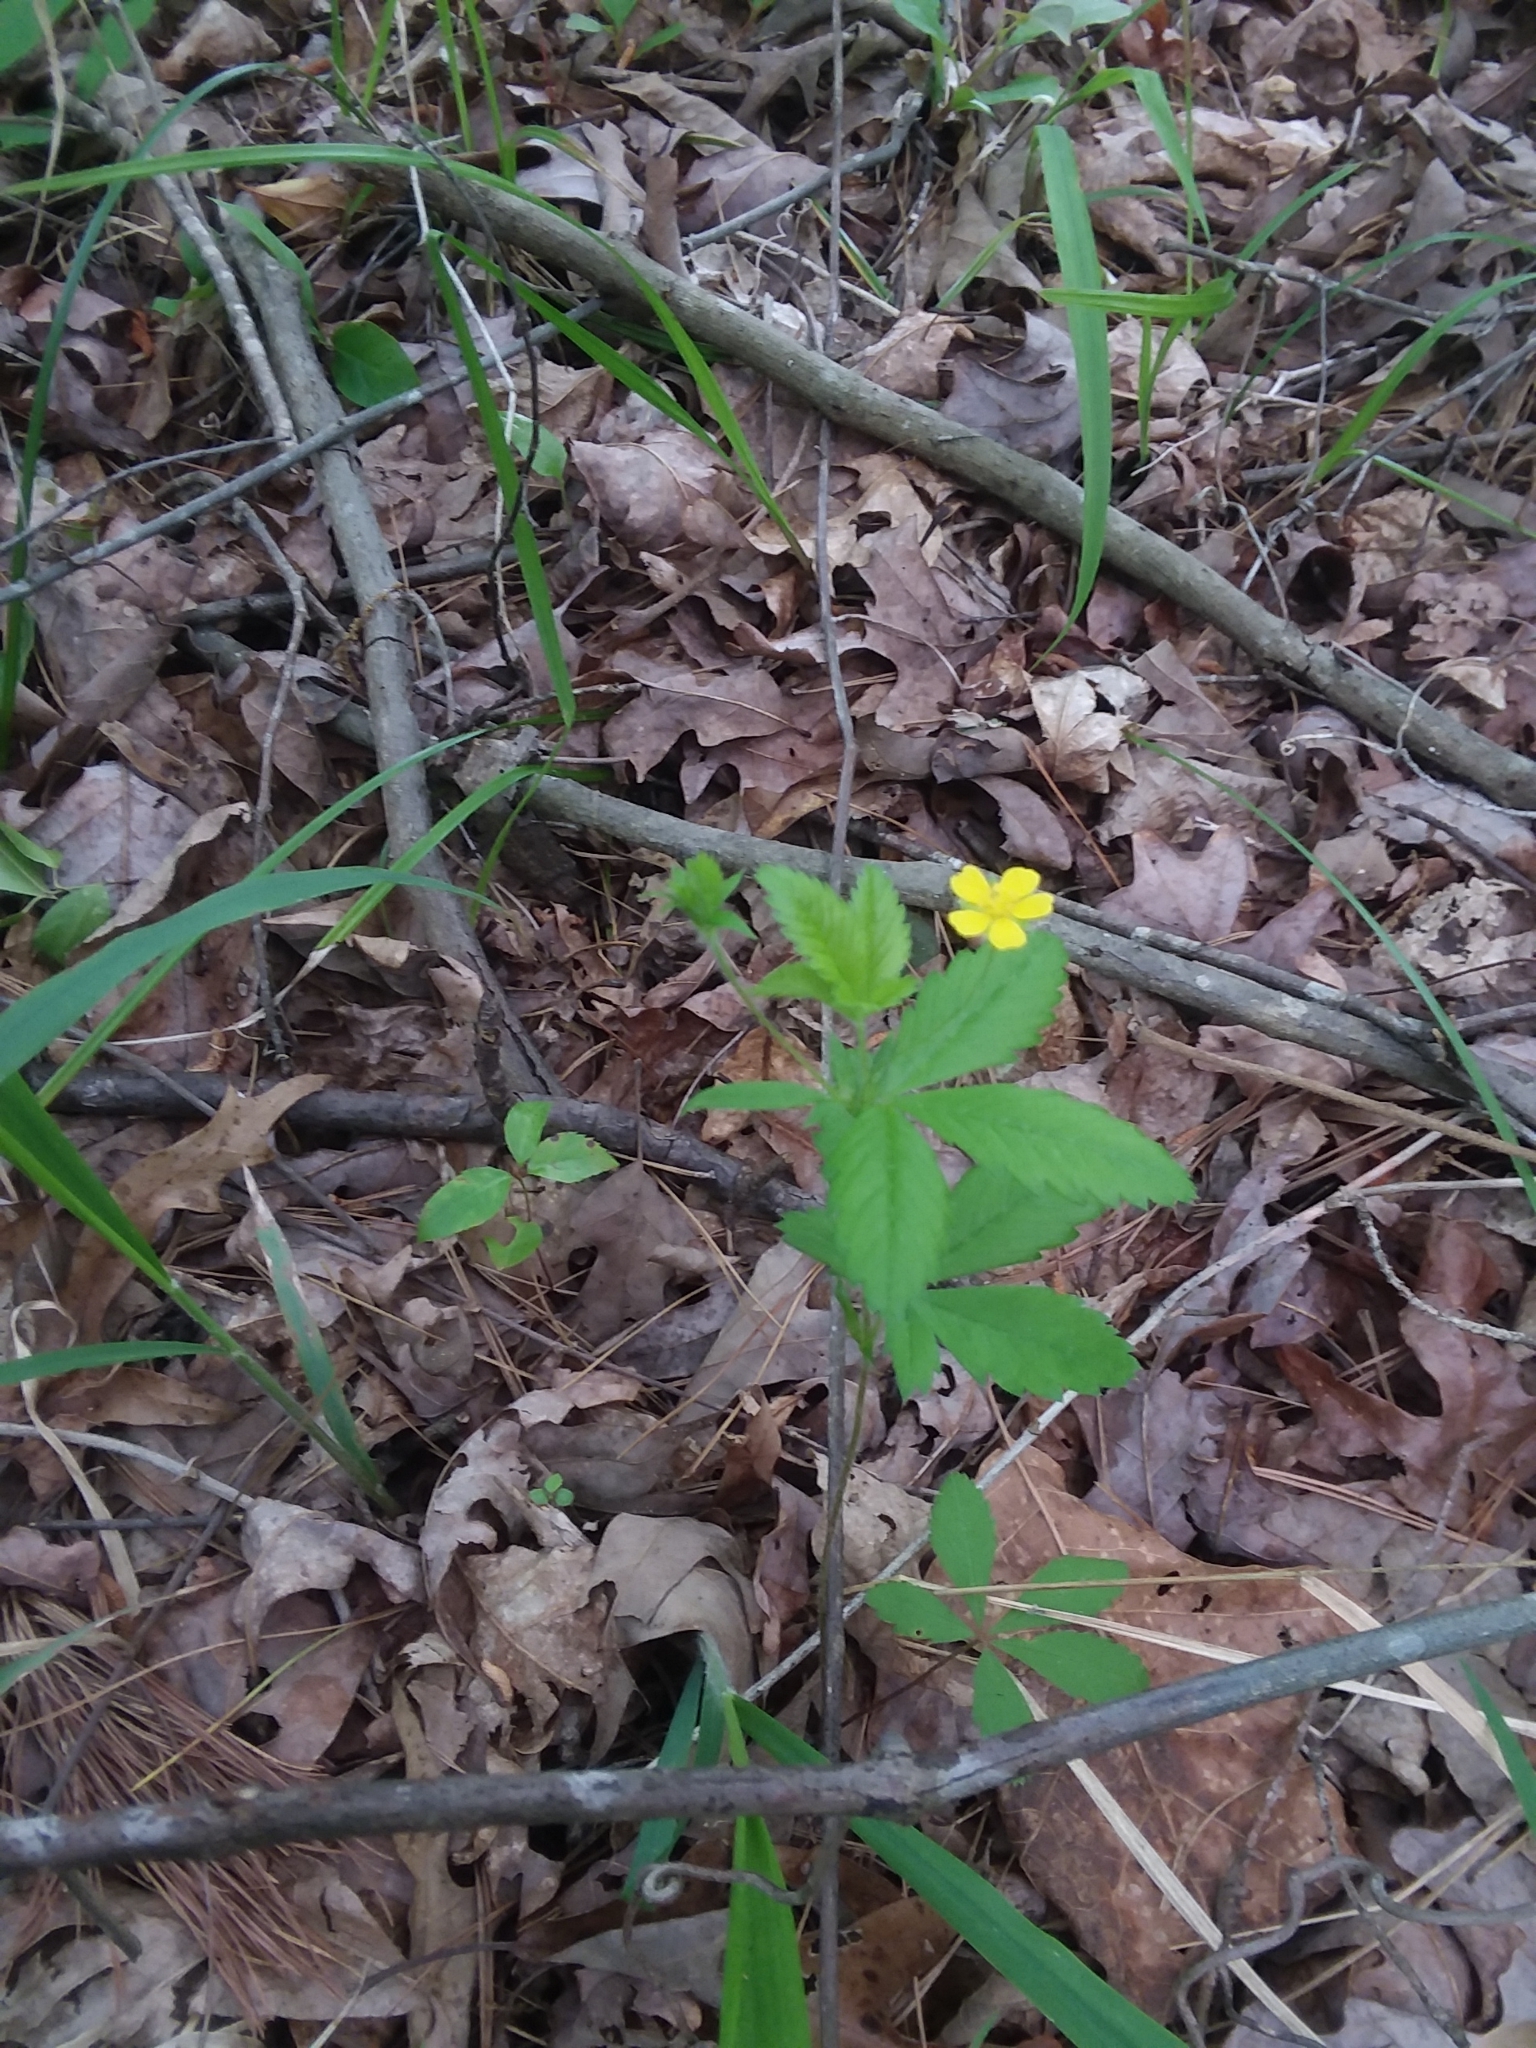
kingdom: Plantae
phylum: Tracheophyta
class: Magnoliopsida
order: Rosales
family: Rosaceae
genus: Potentilla
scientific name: Potentilla simplex
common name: Old field cinquefoil
